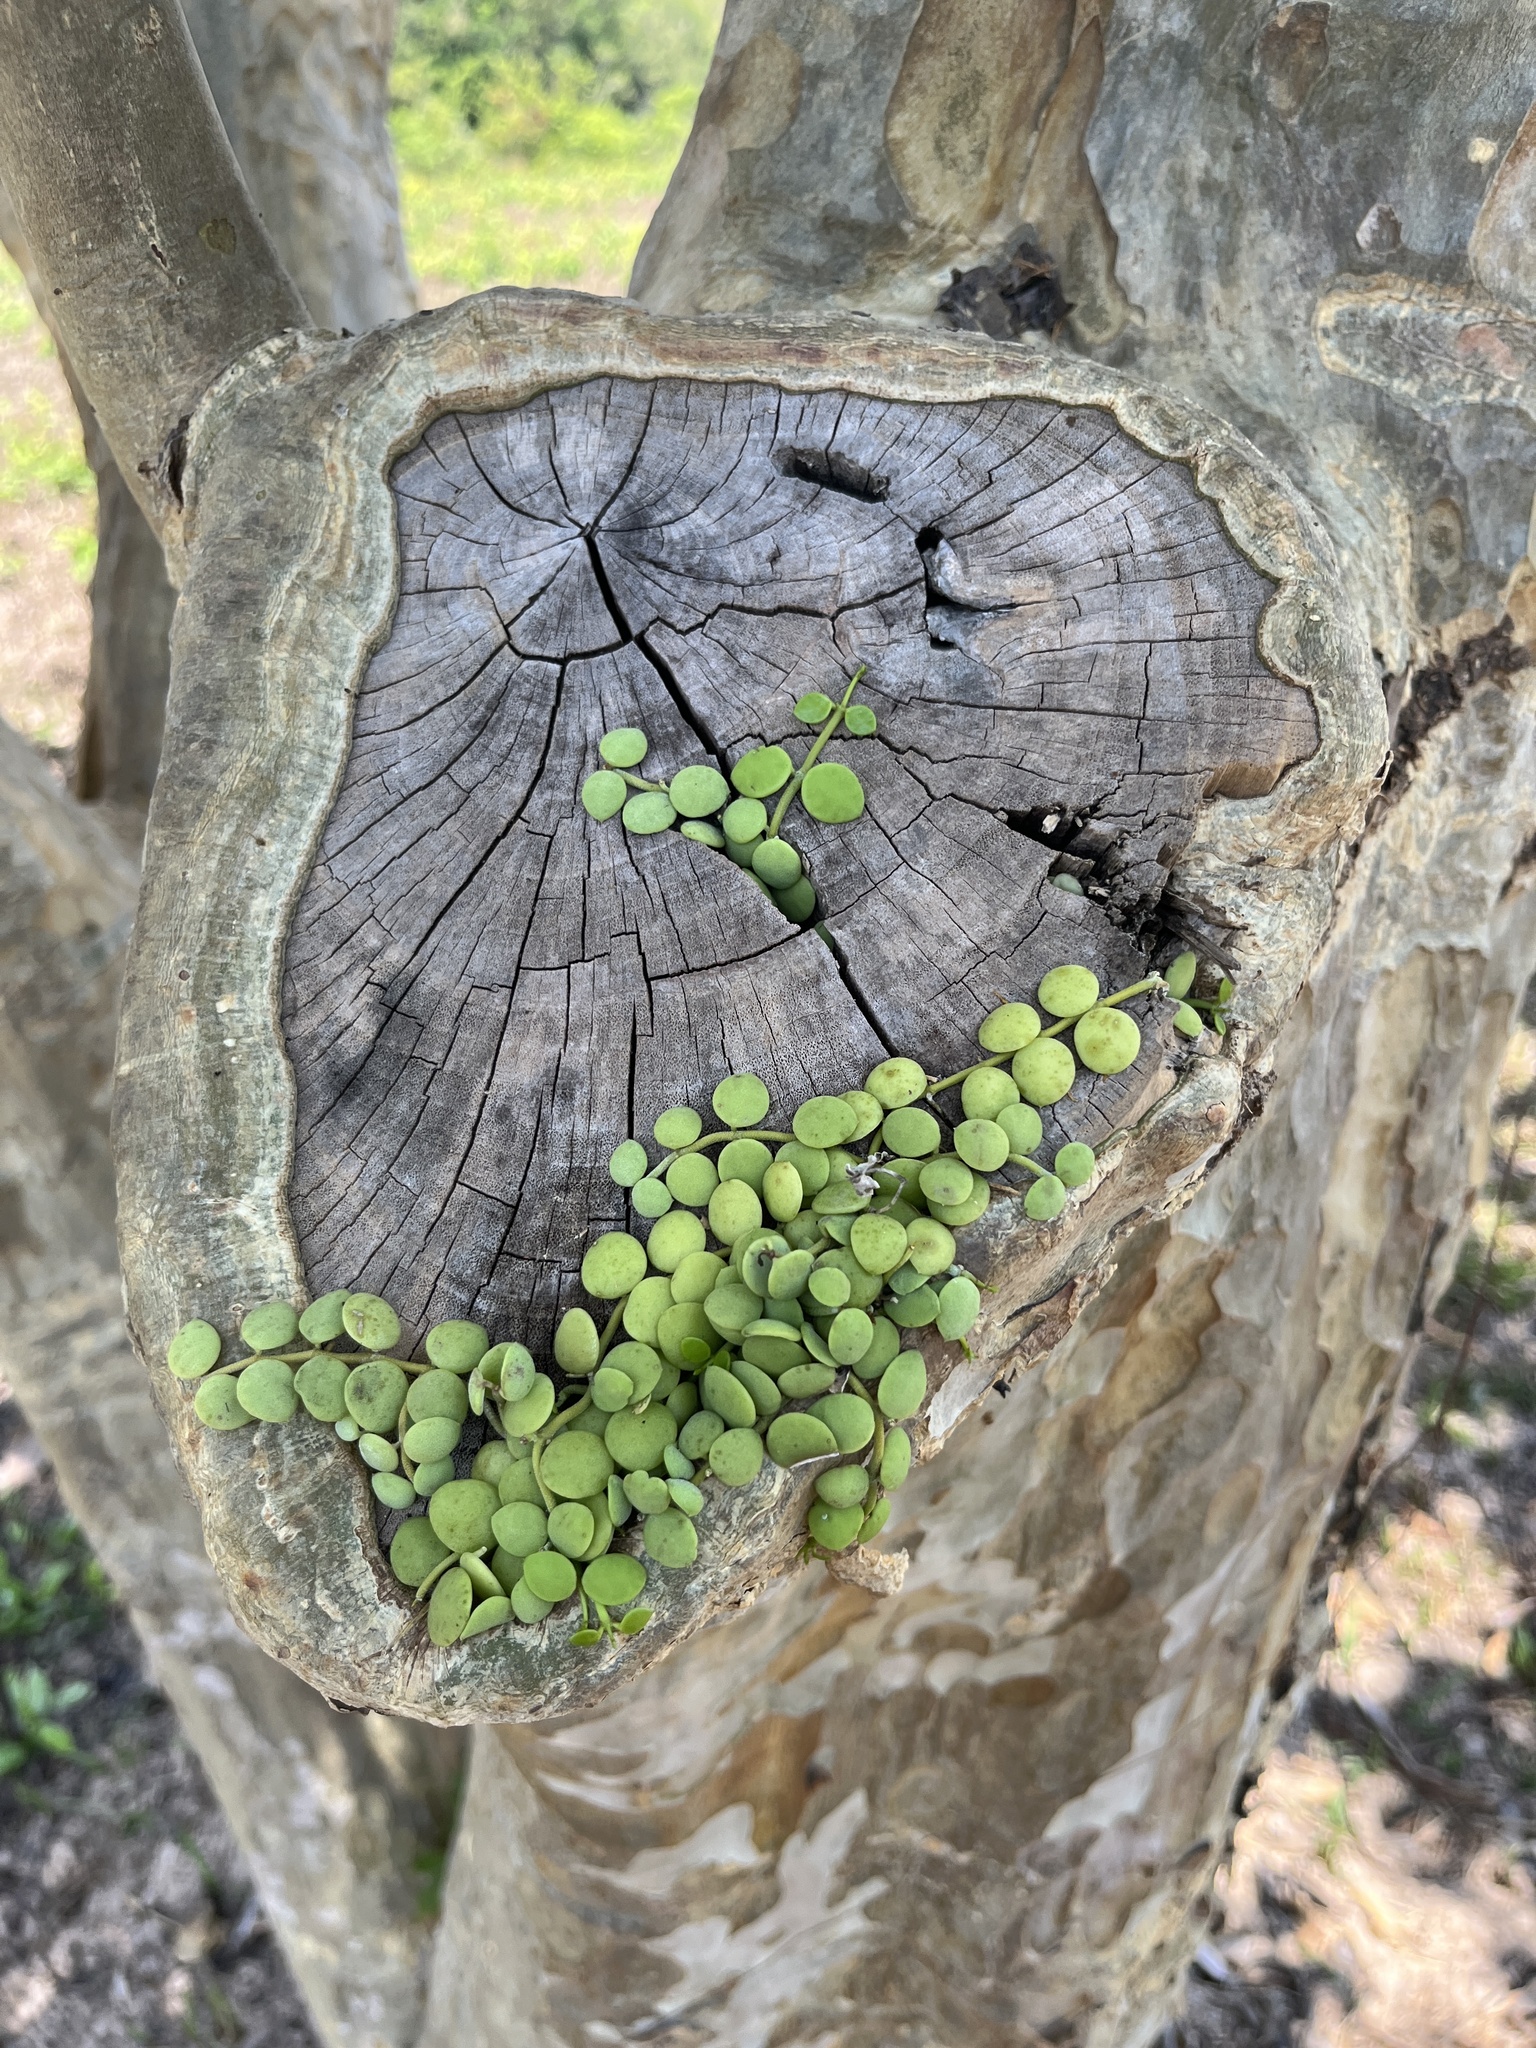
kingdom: Plantae
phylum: Tracheophyta
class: Magnoliopsida
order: Gentianales
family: Apocynaceae
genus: Dischidia
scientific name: Dischidia nummularia
